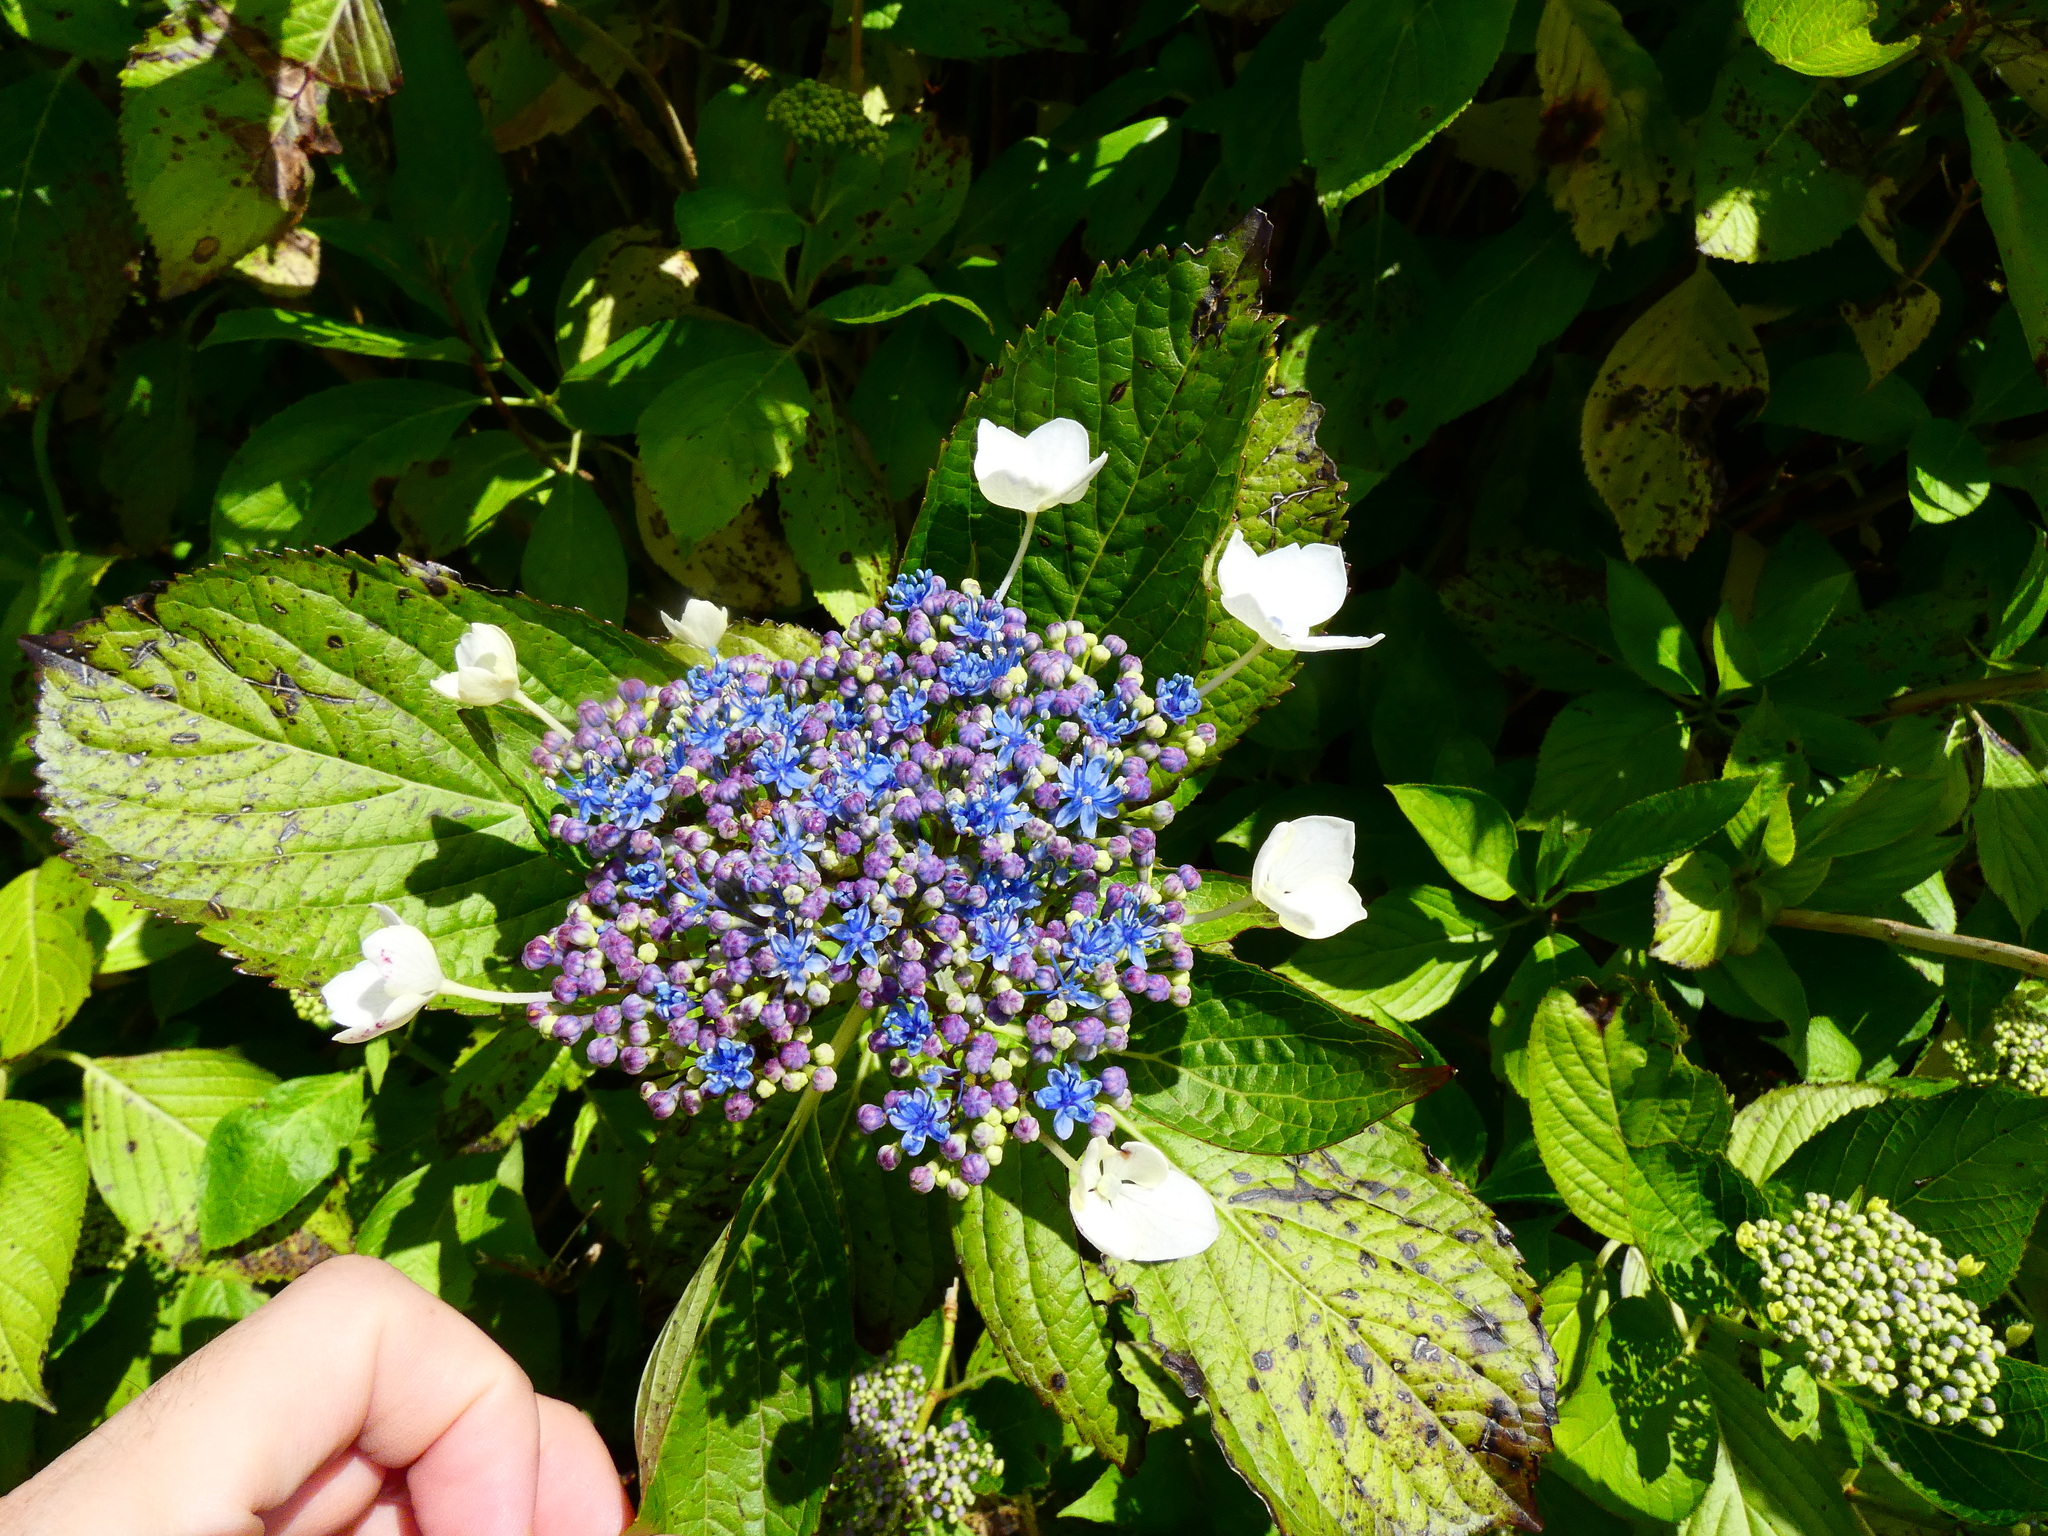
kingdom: Plantae
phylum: Tracheophyta
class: Magnoliopsida
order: Cornales
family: Hydrangeaceae
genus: Hydrangea
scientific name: Hydrangea macrophylla
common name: Hydrangea
